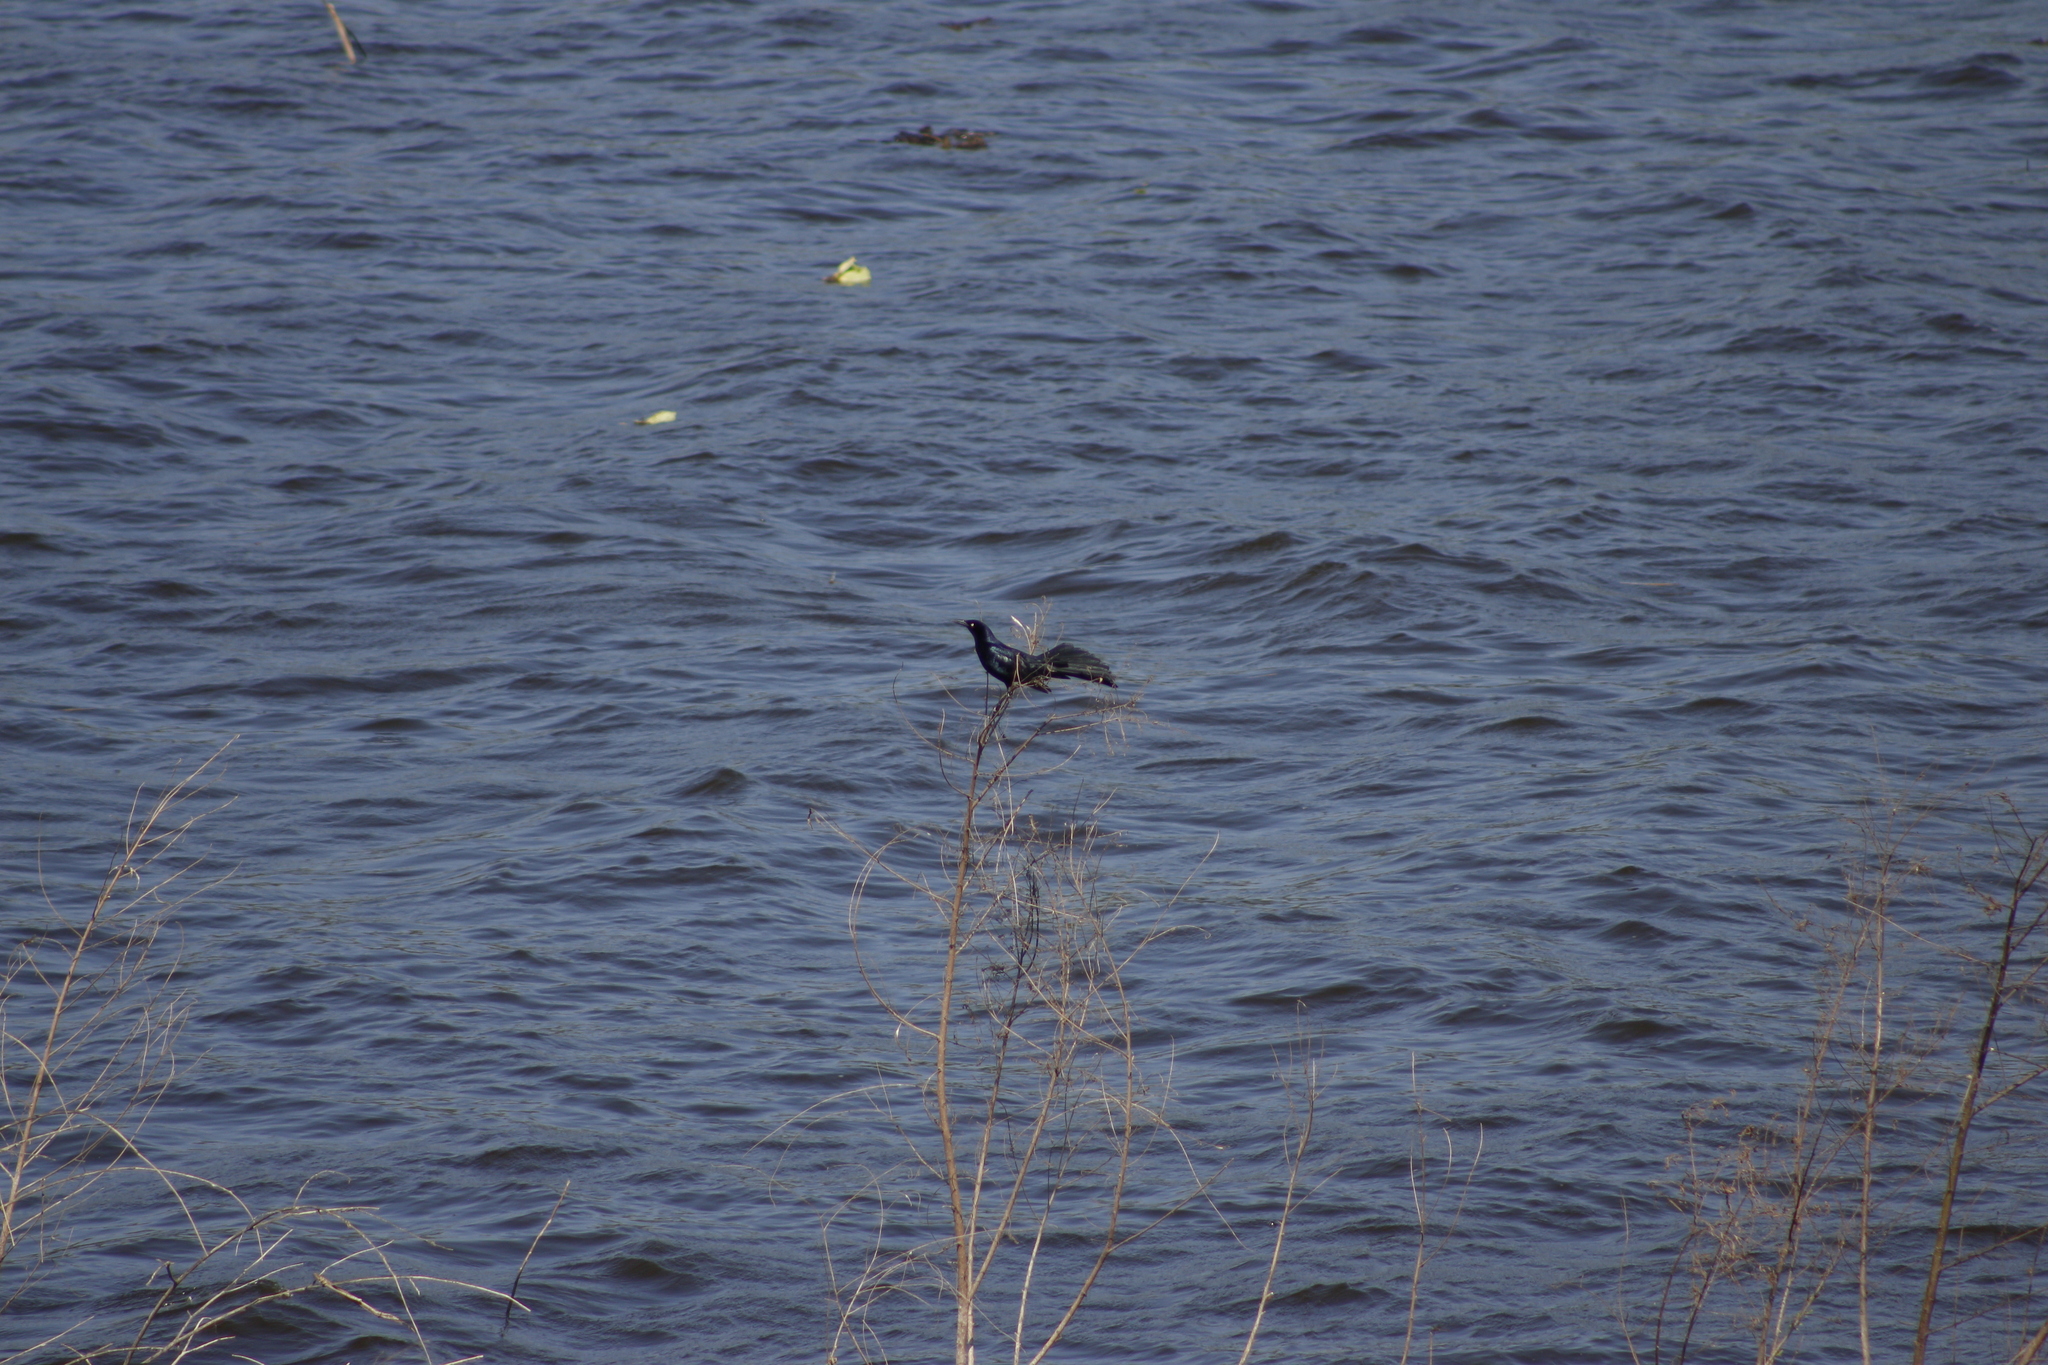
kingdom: Animalia
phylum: Chordata
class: Aves
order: Passeriformes
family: Icteridae
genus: Quiscalus
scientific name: Quiscalus mexicanus
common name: Great-tailed grackle
